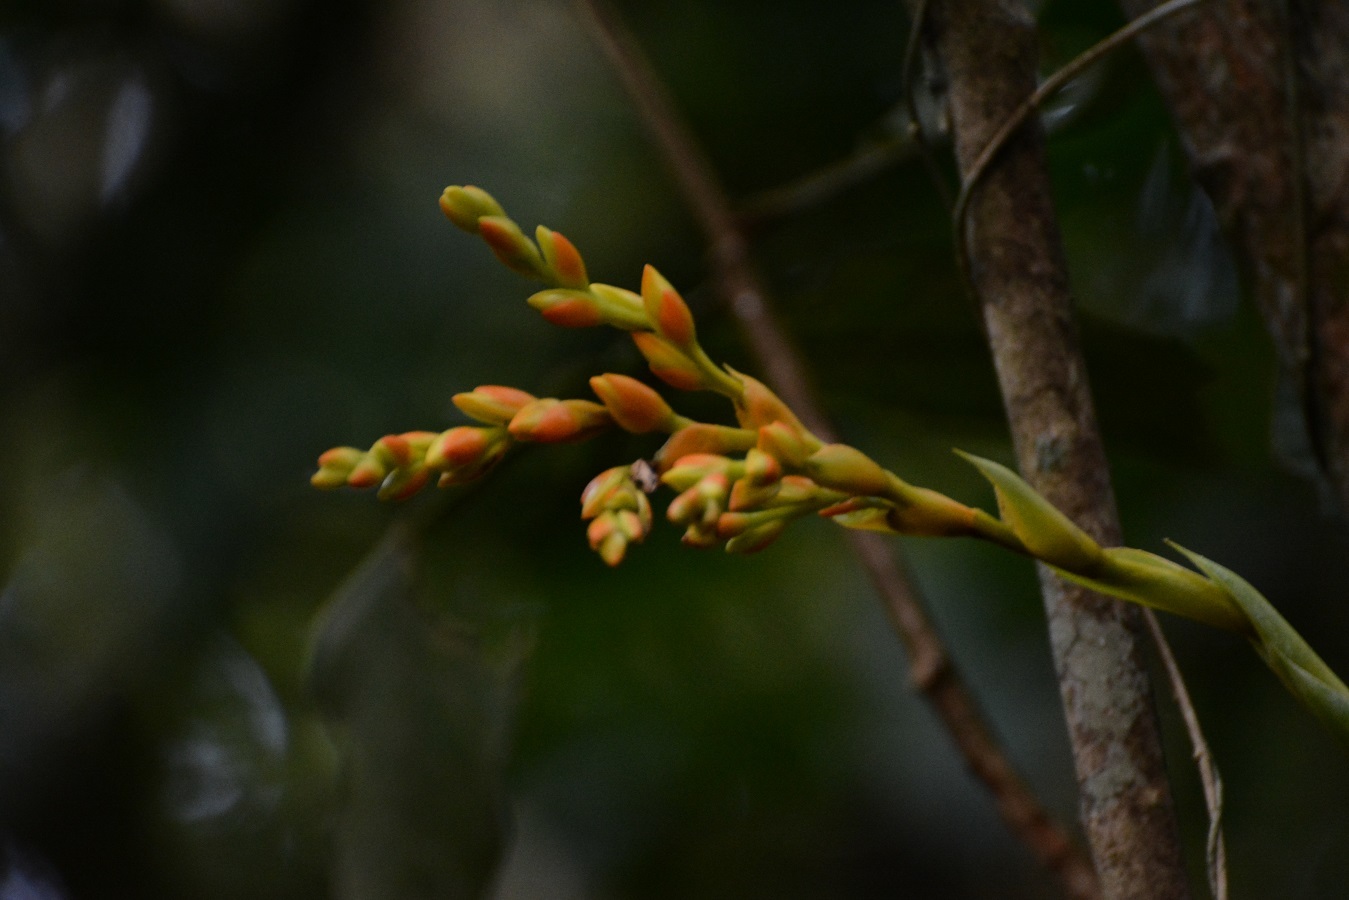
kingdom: Plantae
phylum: Tracheophyta
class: Liliopsida
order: Poales
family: Bromeliaceae
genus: Catopsis
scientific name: Catopsis occulta
